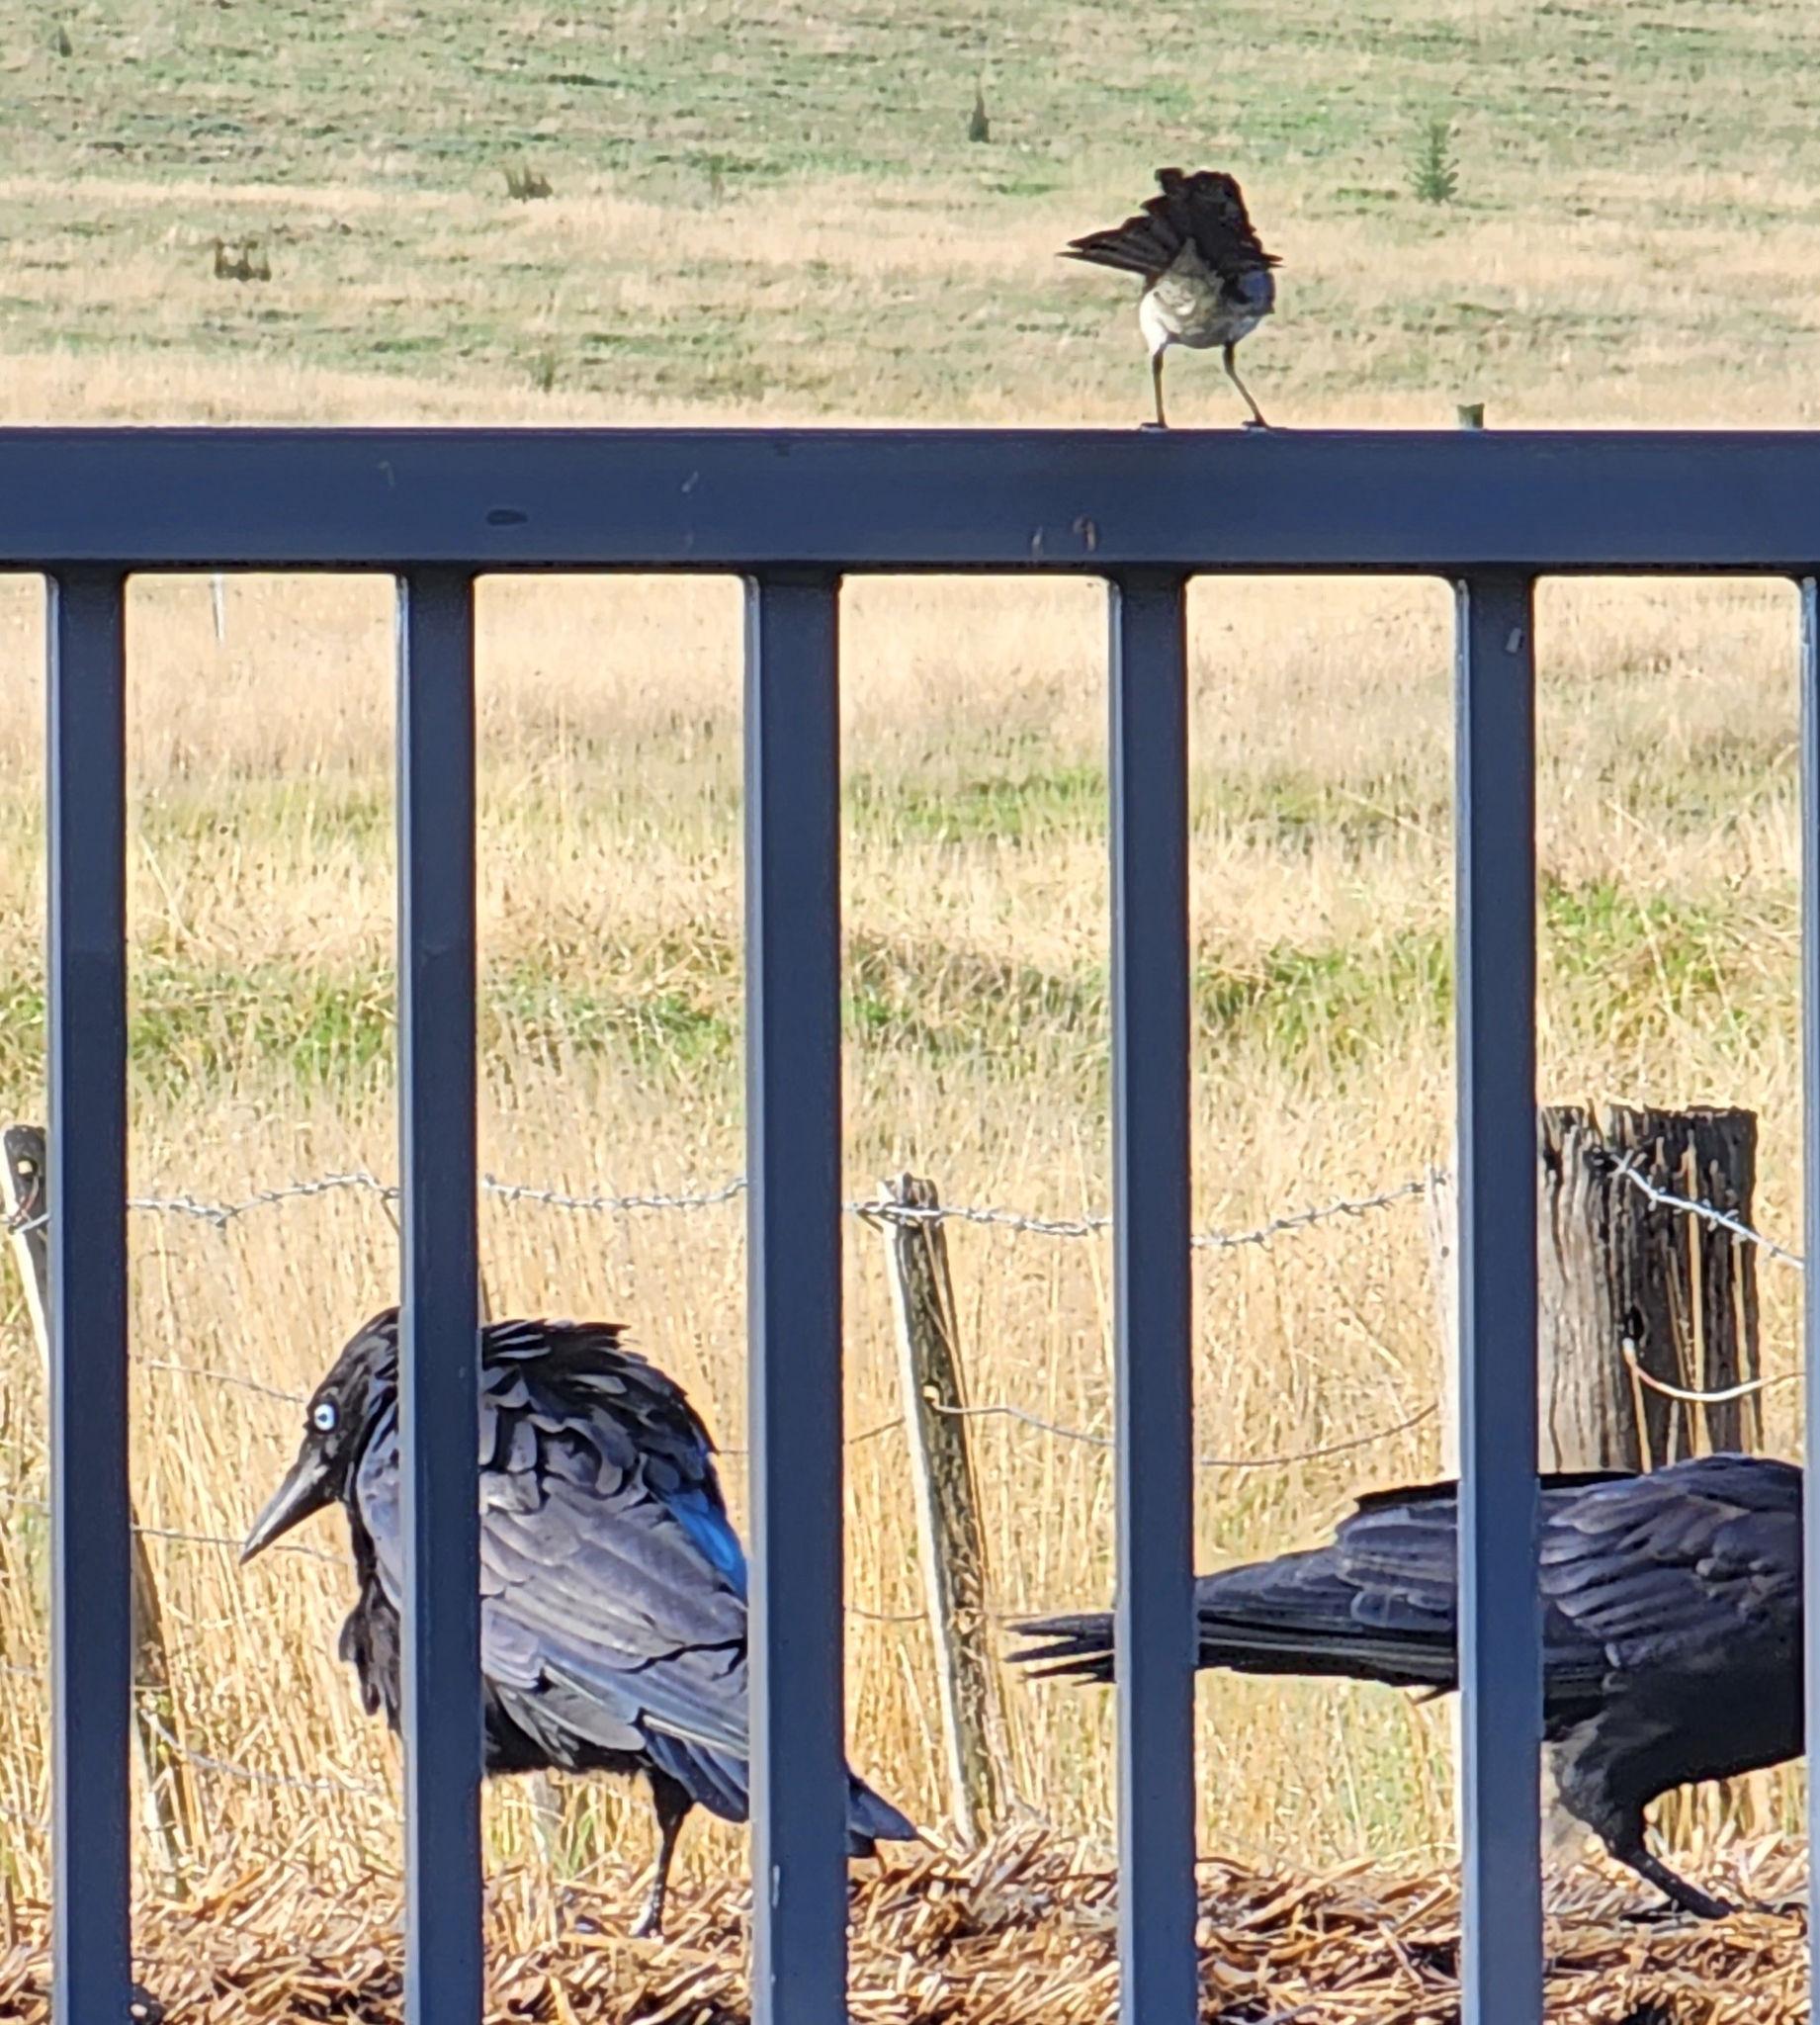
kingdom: Animalia
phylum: Chordata
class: Aves
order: Passeriformes
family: Corvidae
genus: Corvus
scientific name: Corvus mellori
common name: Little raven
